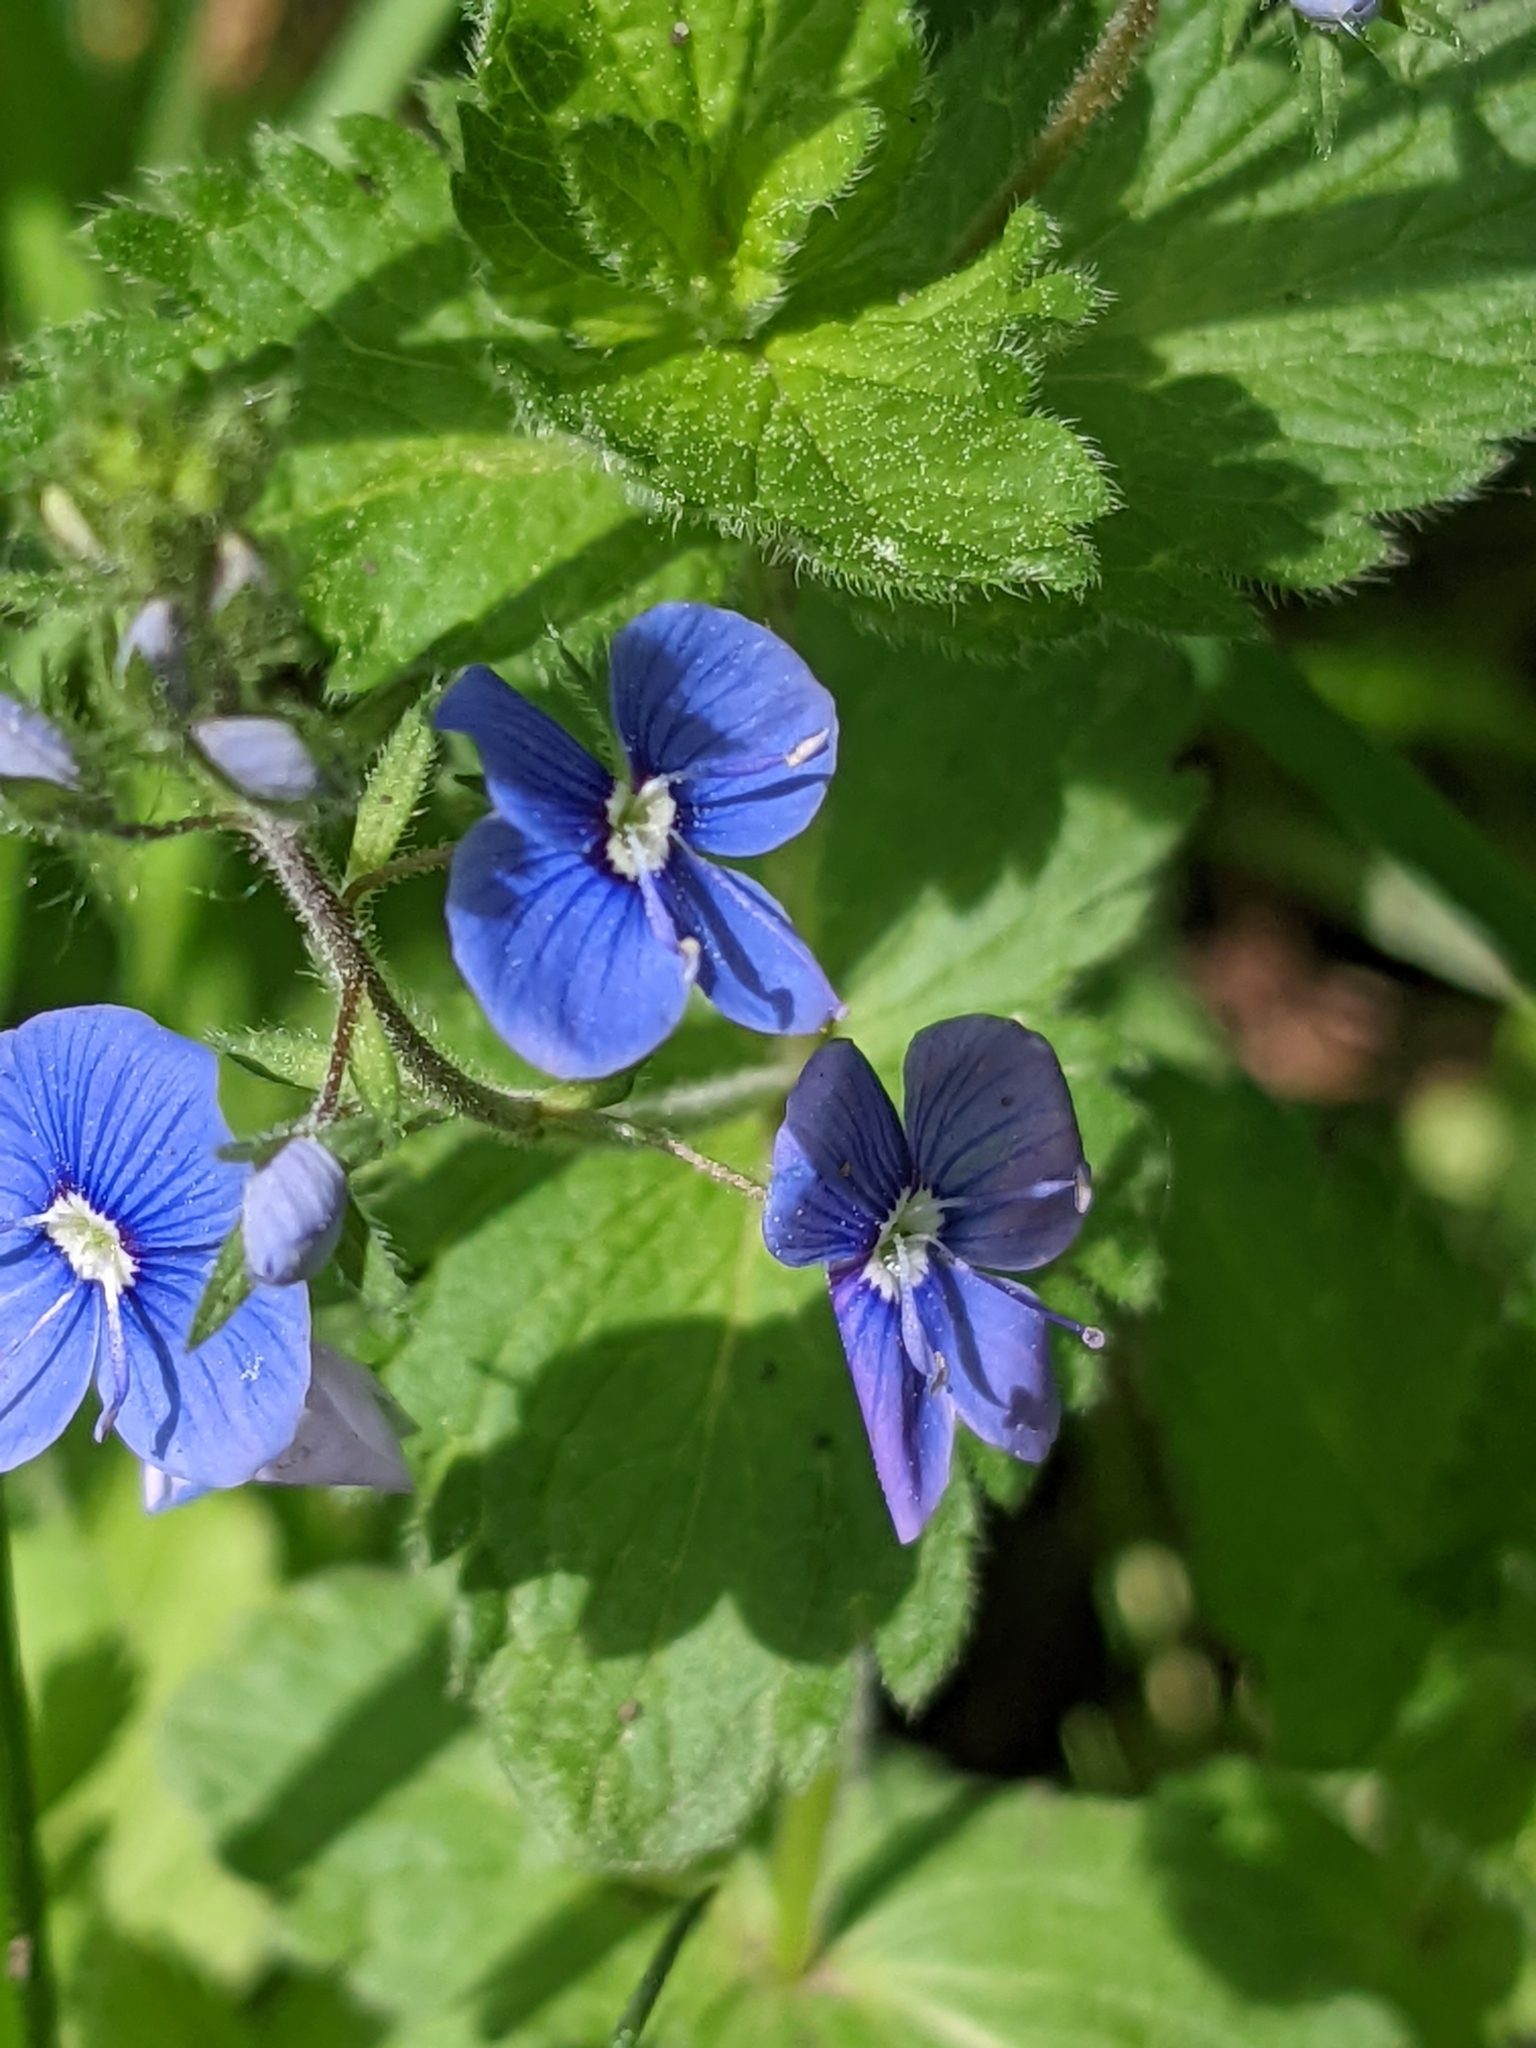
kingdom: Plantae
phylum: Tracheophyta
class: Magnoliopsida
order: Lamiales
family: Plantaginaceae
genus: Veronica
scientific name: Veronica chamaedrys
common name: Germander speedwell
